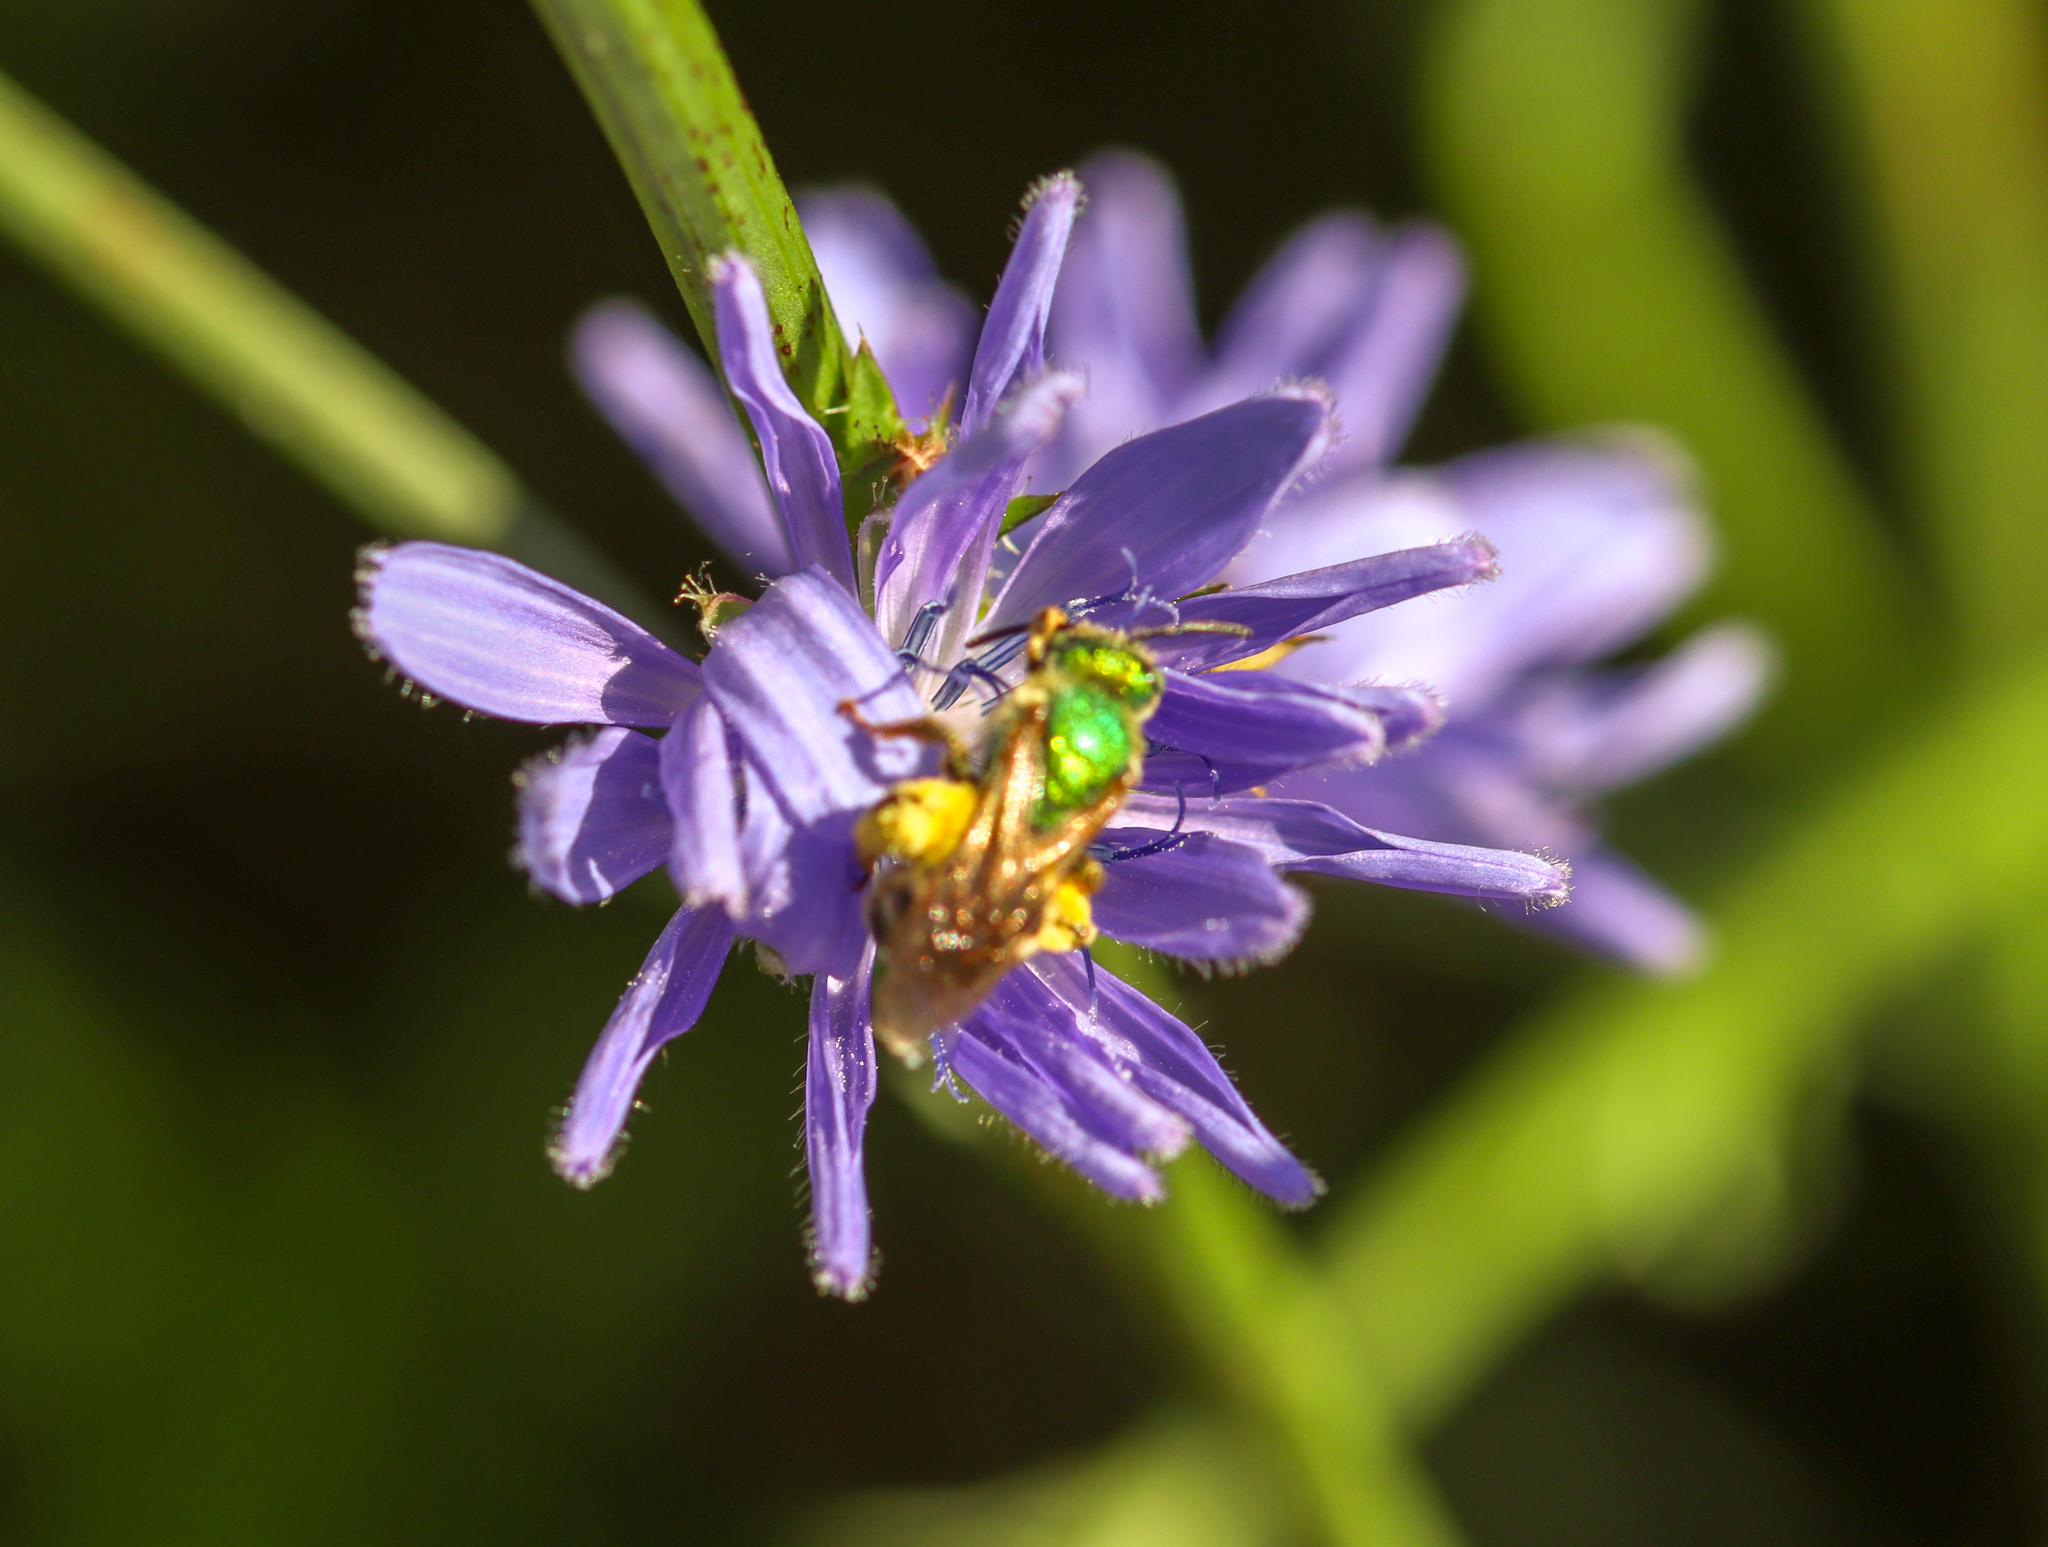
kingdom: Animalia
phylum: Arthropoda
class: Insecta
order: Hymenoptera
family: Halictidae
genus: Agapostemon
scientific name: Agapostemon virescens
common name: Bicolored striped sweat bee
